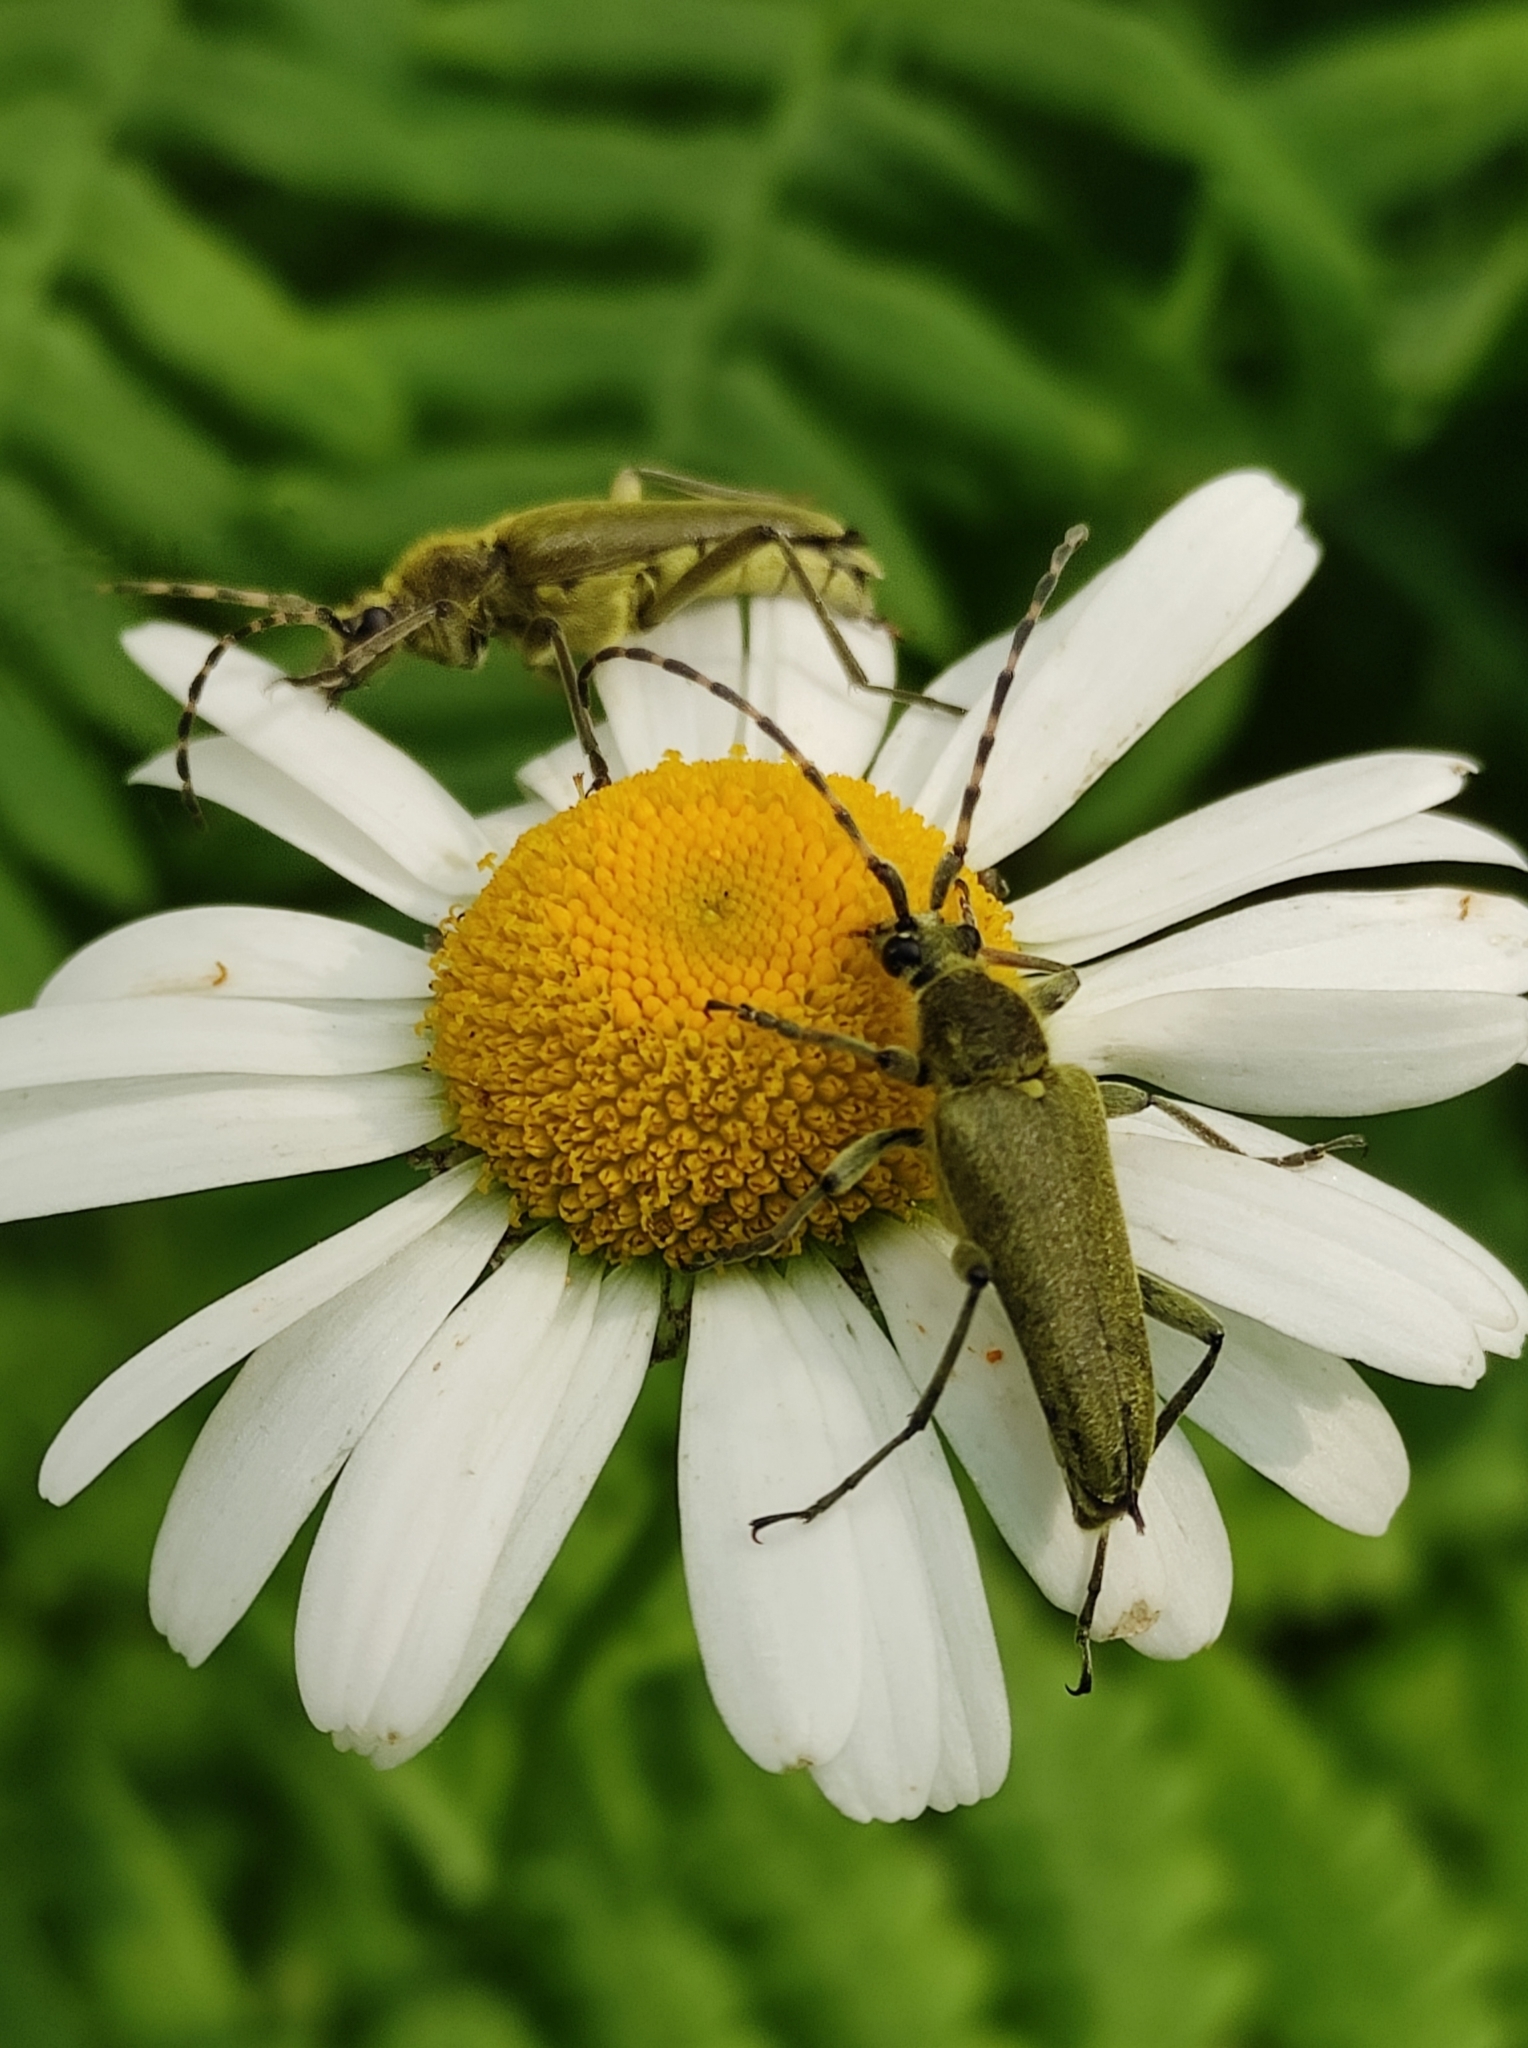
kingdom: Animalia
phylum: Arthropoda
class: Insecta
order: Coleoptera
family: Cerambycidae
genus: Lepturobosca
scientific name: Lepturobosca virens
